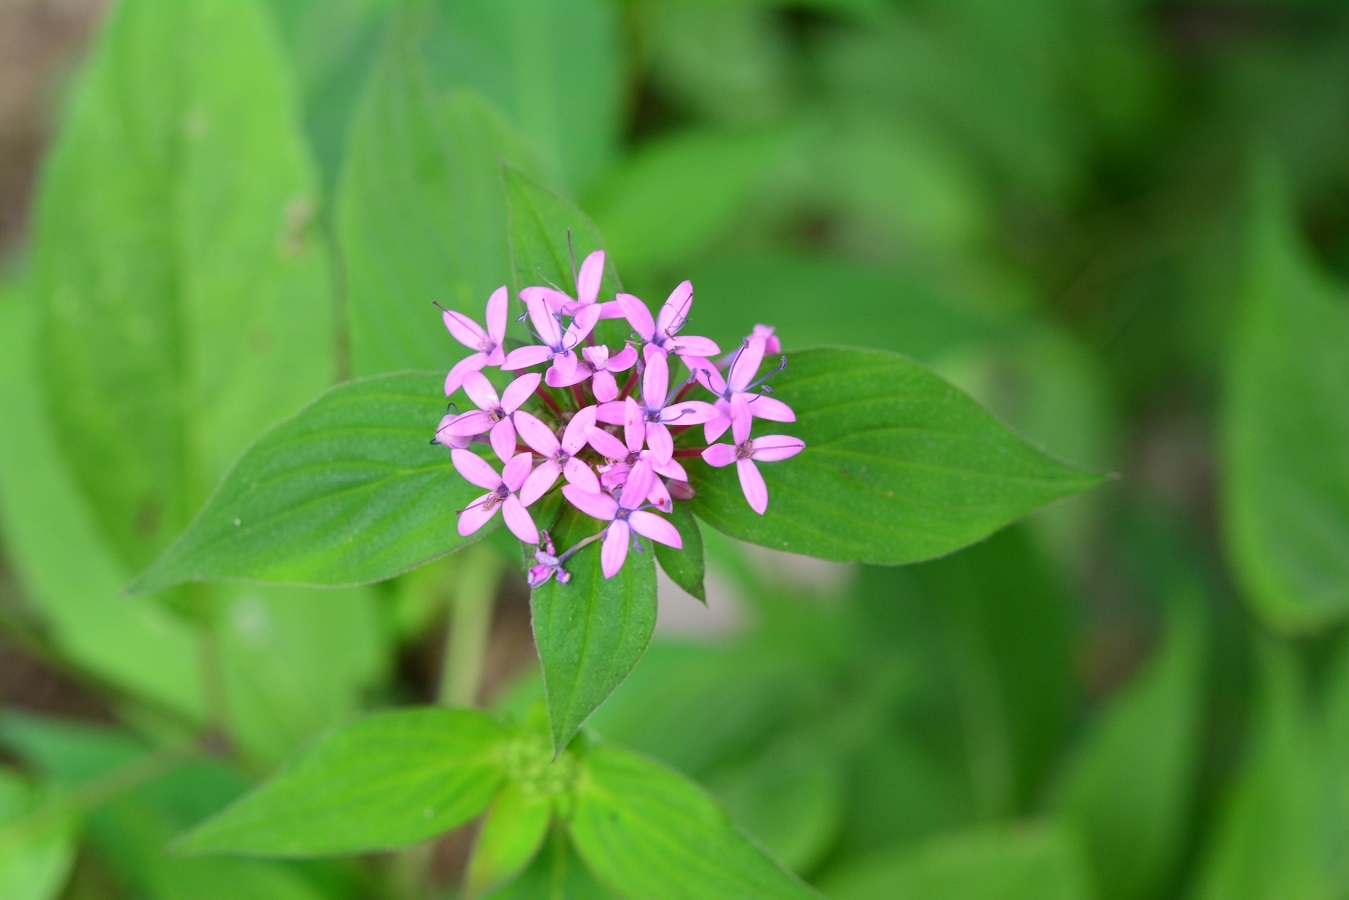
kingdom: Plantae
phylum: Tracheophyta
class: Magnoliopsida
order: Gentianales
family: Rubiaceae
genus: Crusea
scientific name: Crusea hispida
